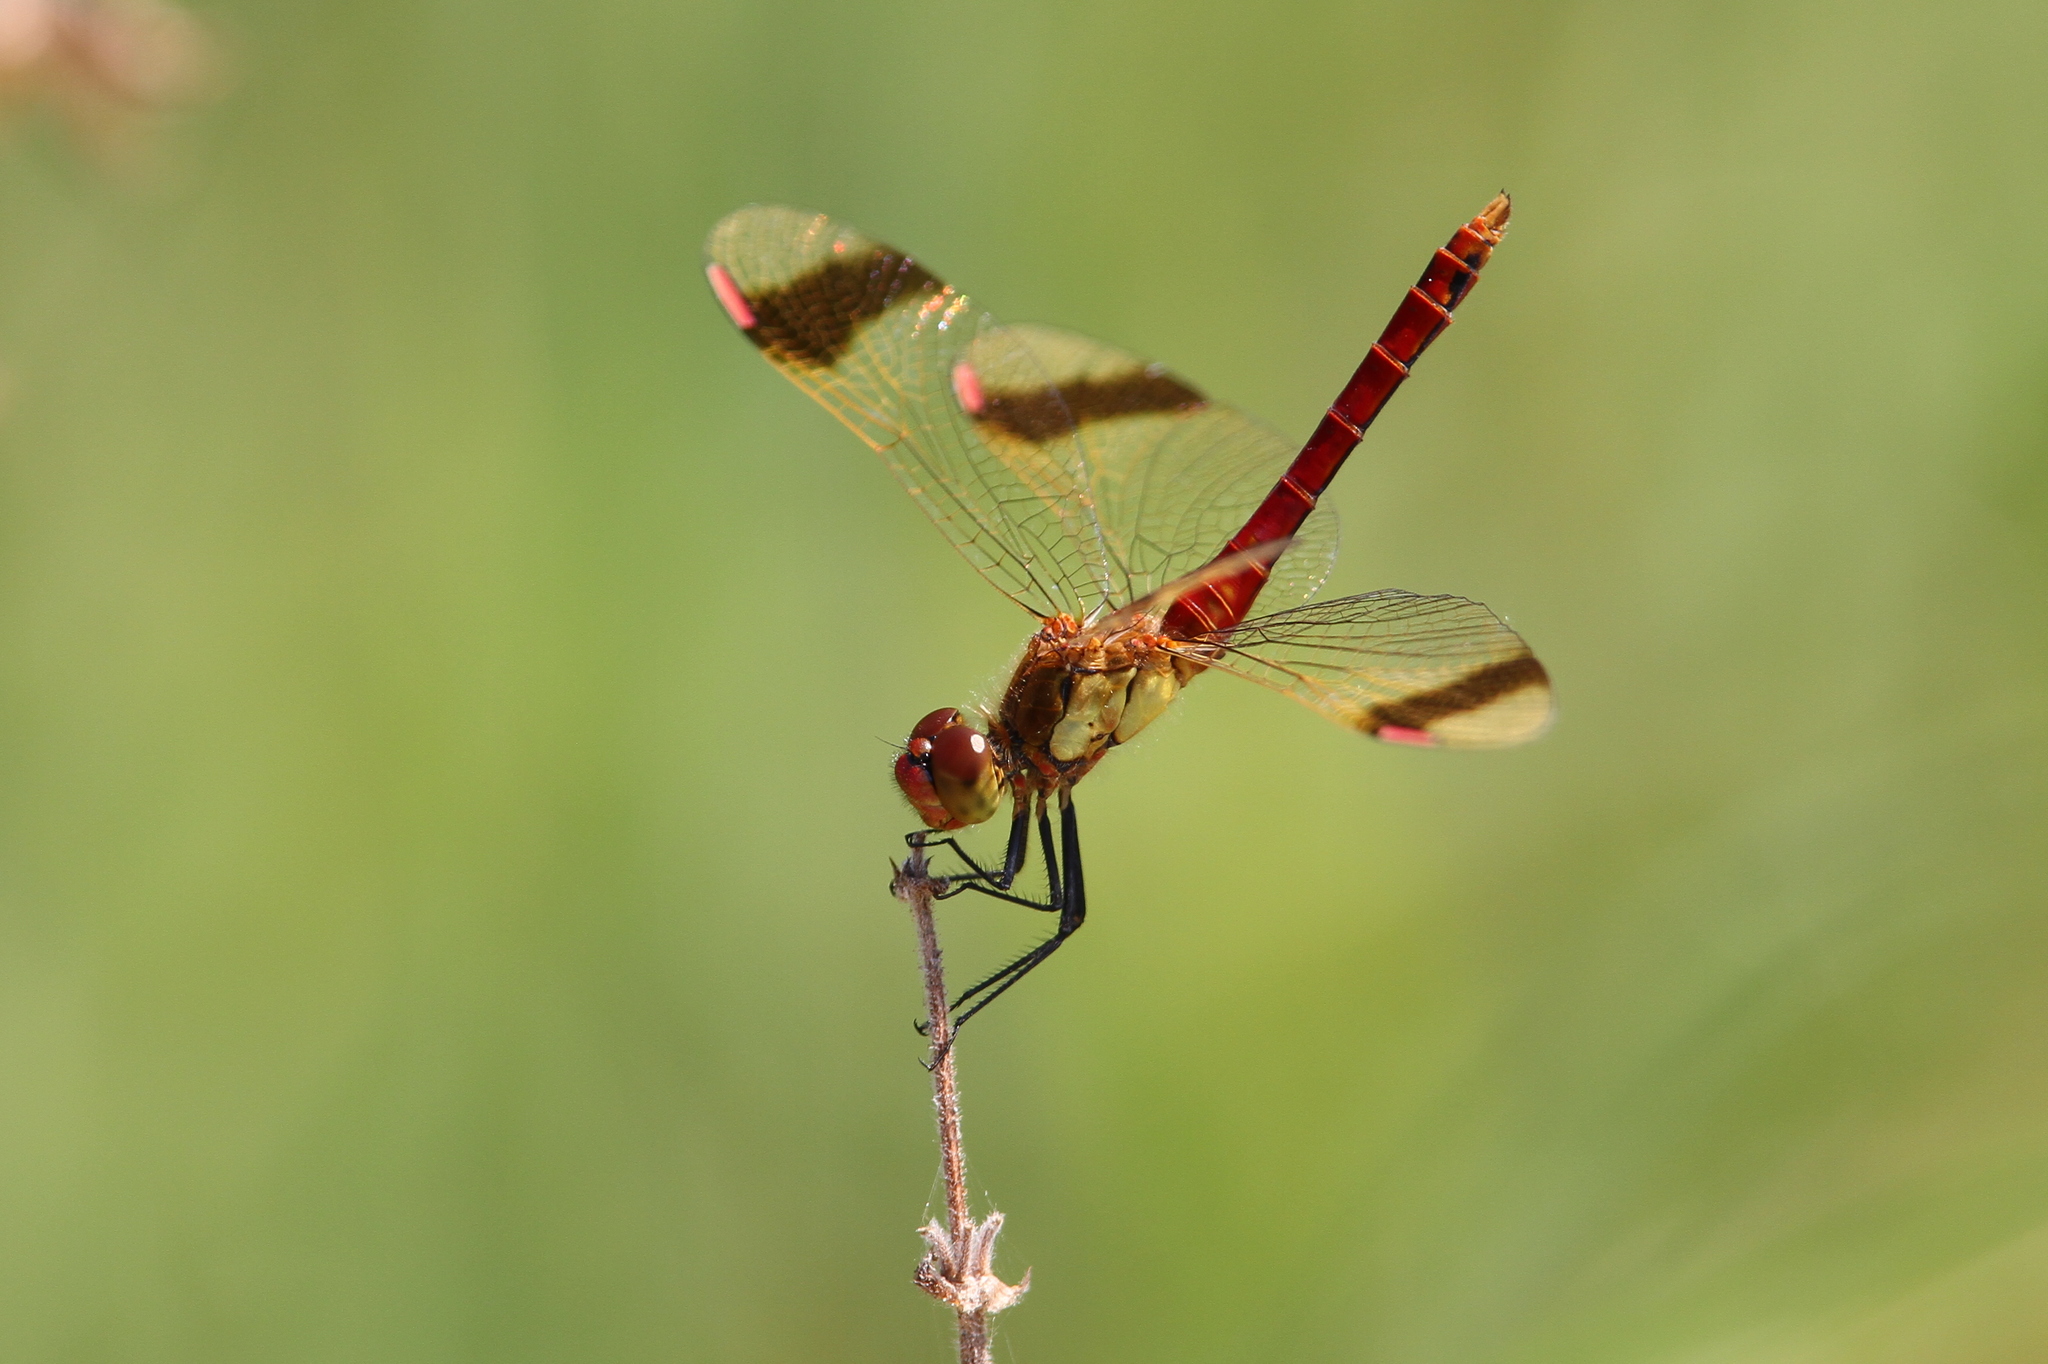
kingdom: Animalia
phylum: Arthropoda
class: Insecta
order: Odonata
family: Libellulidae
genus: Sympetrum
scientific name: Sympetrum pedemontanum
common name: Banded darter
